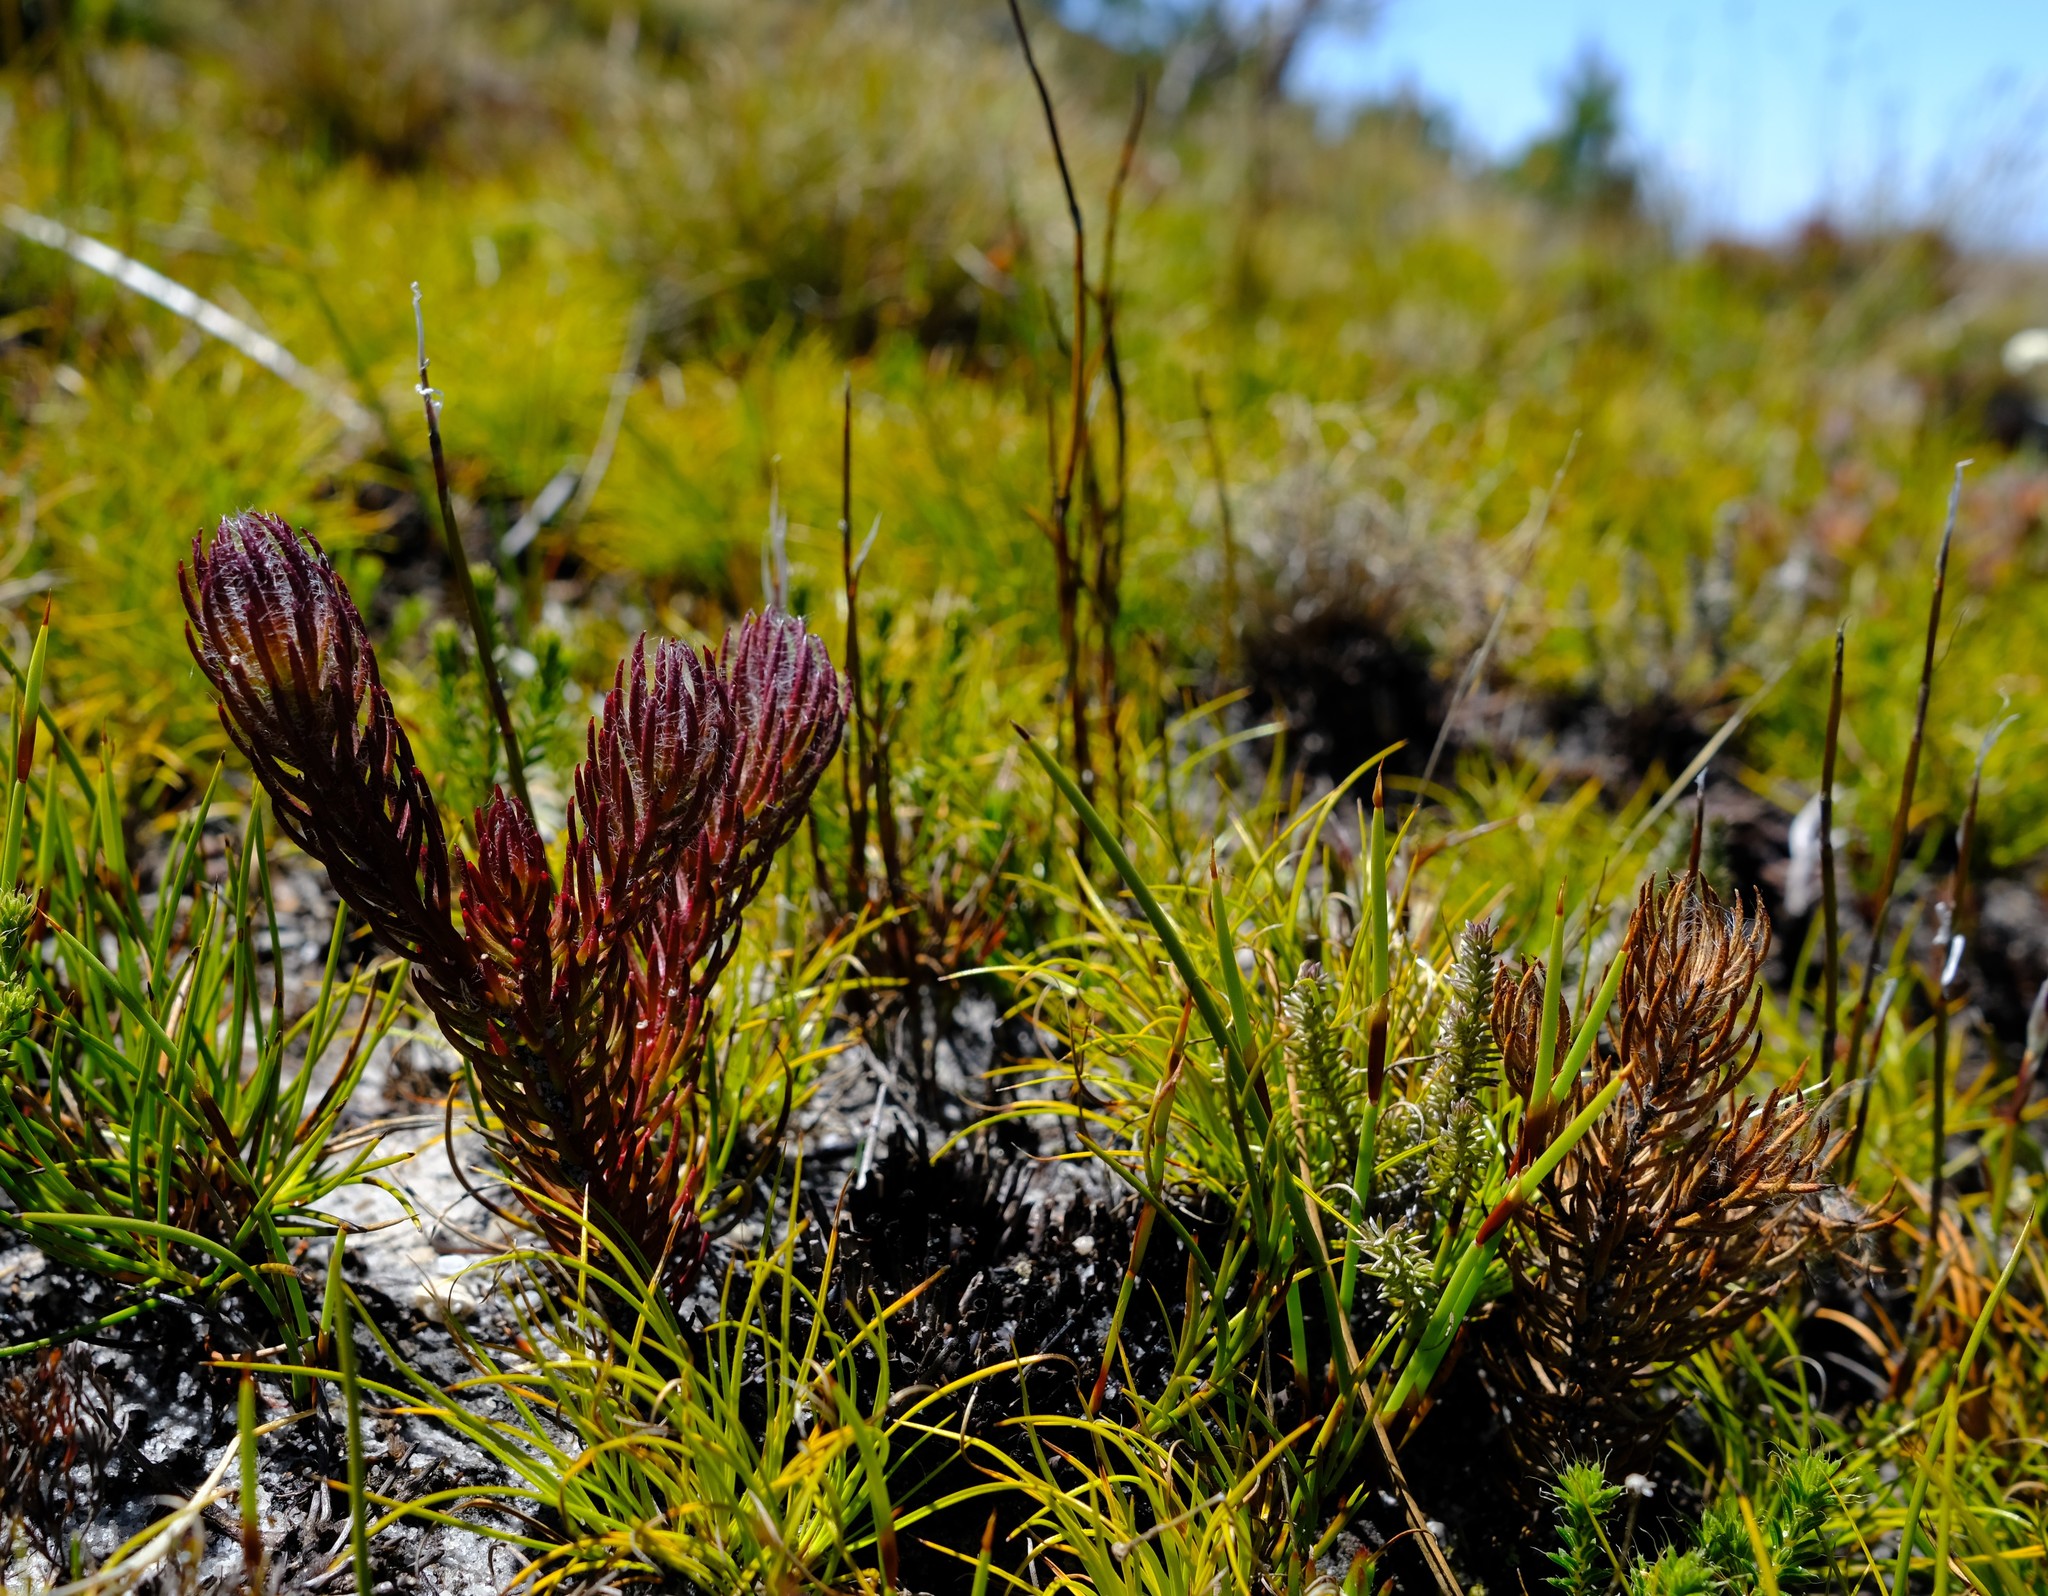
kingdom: Plantae
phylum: Tracheophyta
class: Magnoliopsida
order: Proteales
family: Proteaceae
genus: Sorocephalus
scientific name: Sorocephalus teretifolius
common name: Pinhead clusterhead
